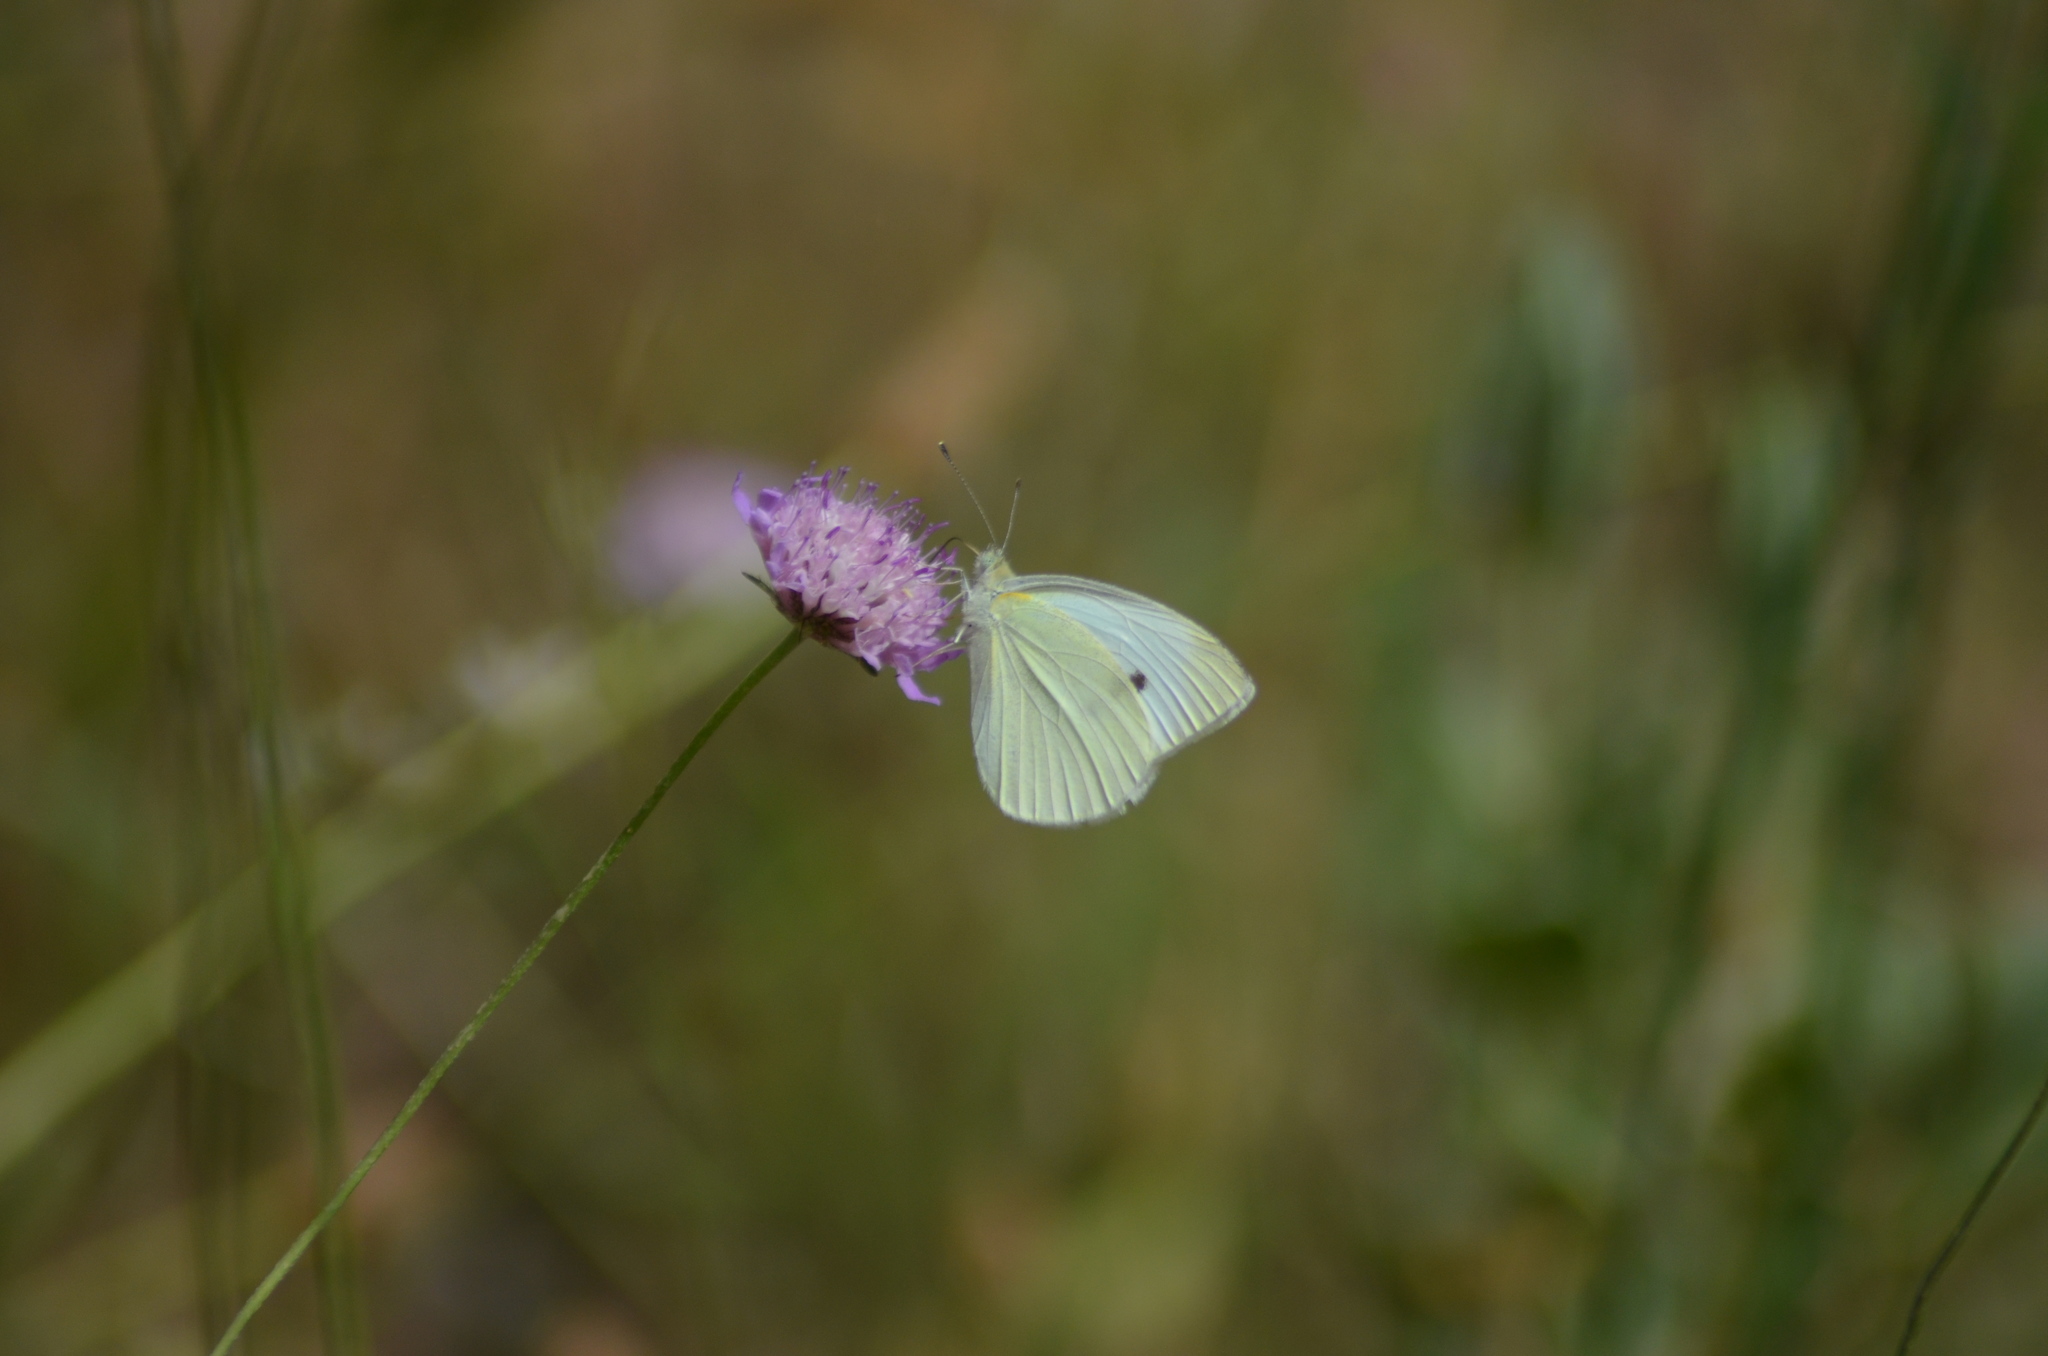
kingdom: Animalia
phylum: Arthropoda
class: Insecta
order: Lepidoptera
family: Pieridae
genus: Pieris
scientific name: Pieris rapae
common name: Small white
